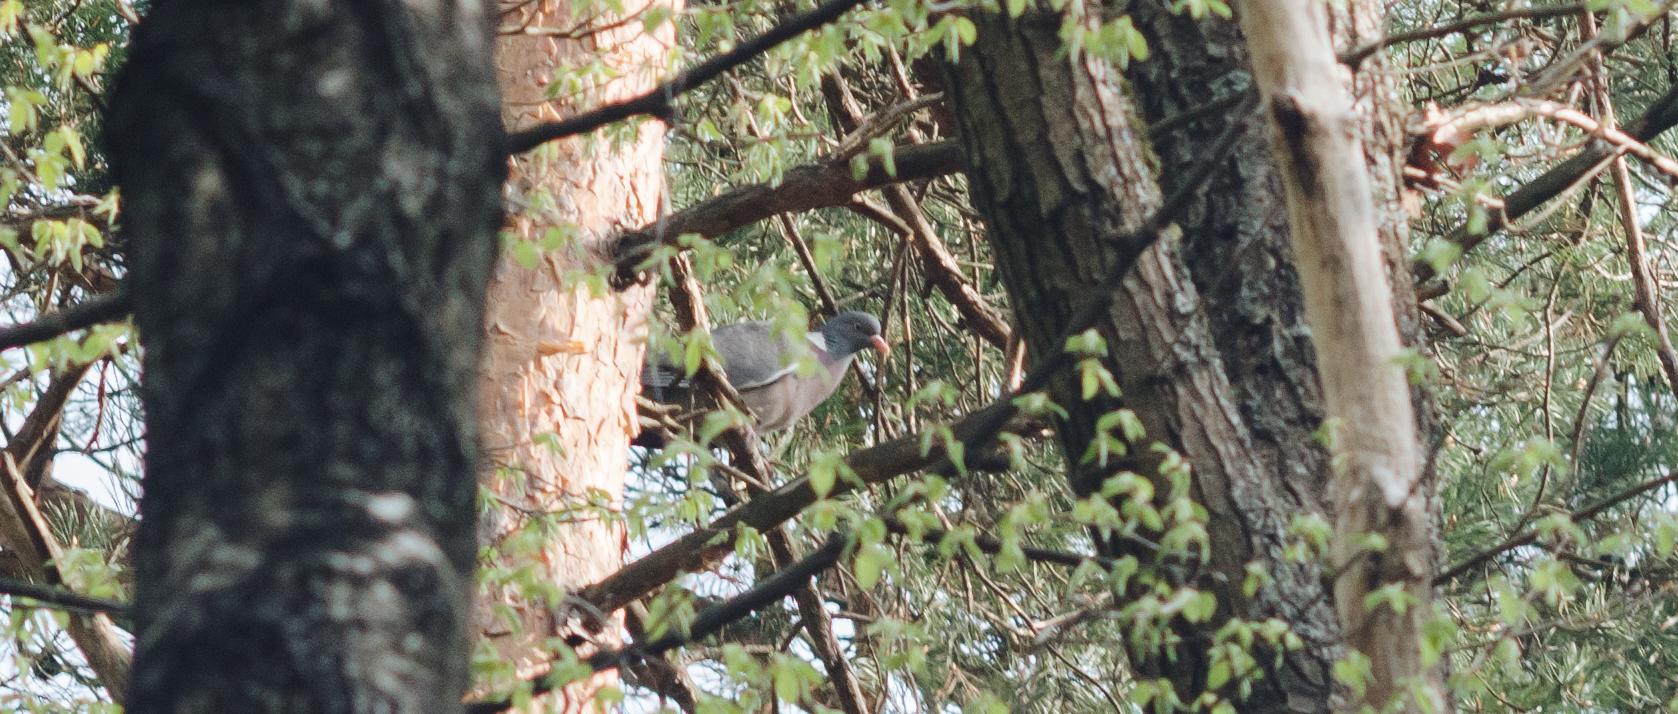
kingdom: Animalia
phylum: Chordata
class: Aves
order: Columbiformes
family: Columbidae
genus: Columba
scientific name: Columba palumbus
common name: Common wood pigeon
